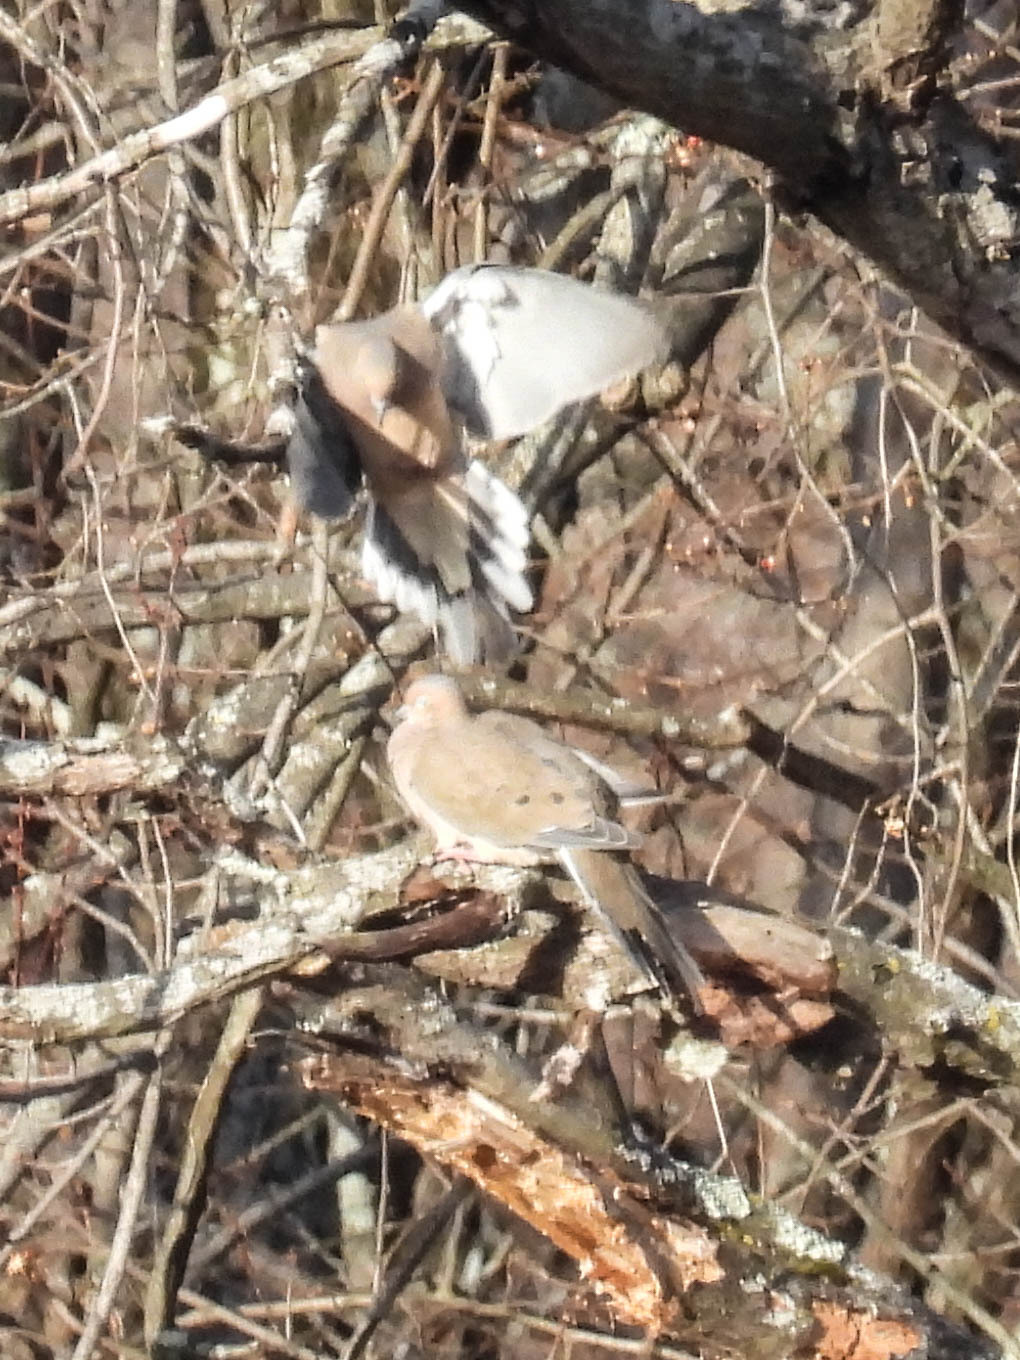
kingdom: Animalia
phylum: Chordata
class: Aves
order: Columbiformes
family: Columbidae
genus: Zenaida
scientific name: Zenaida macroura
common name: Mourning dove
